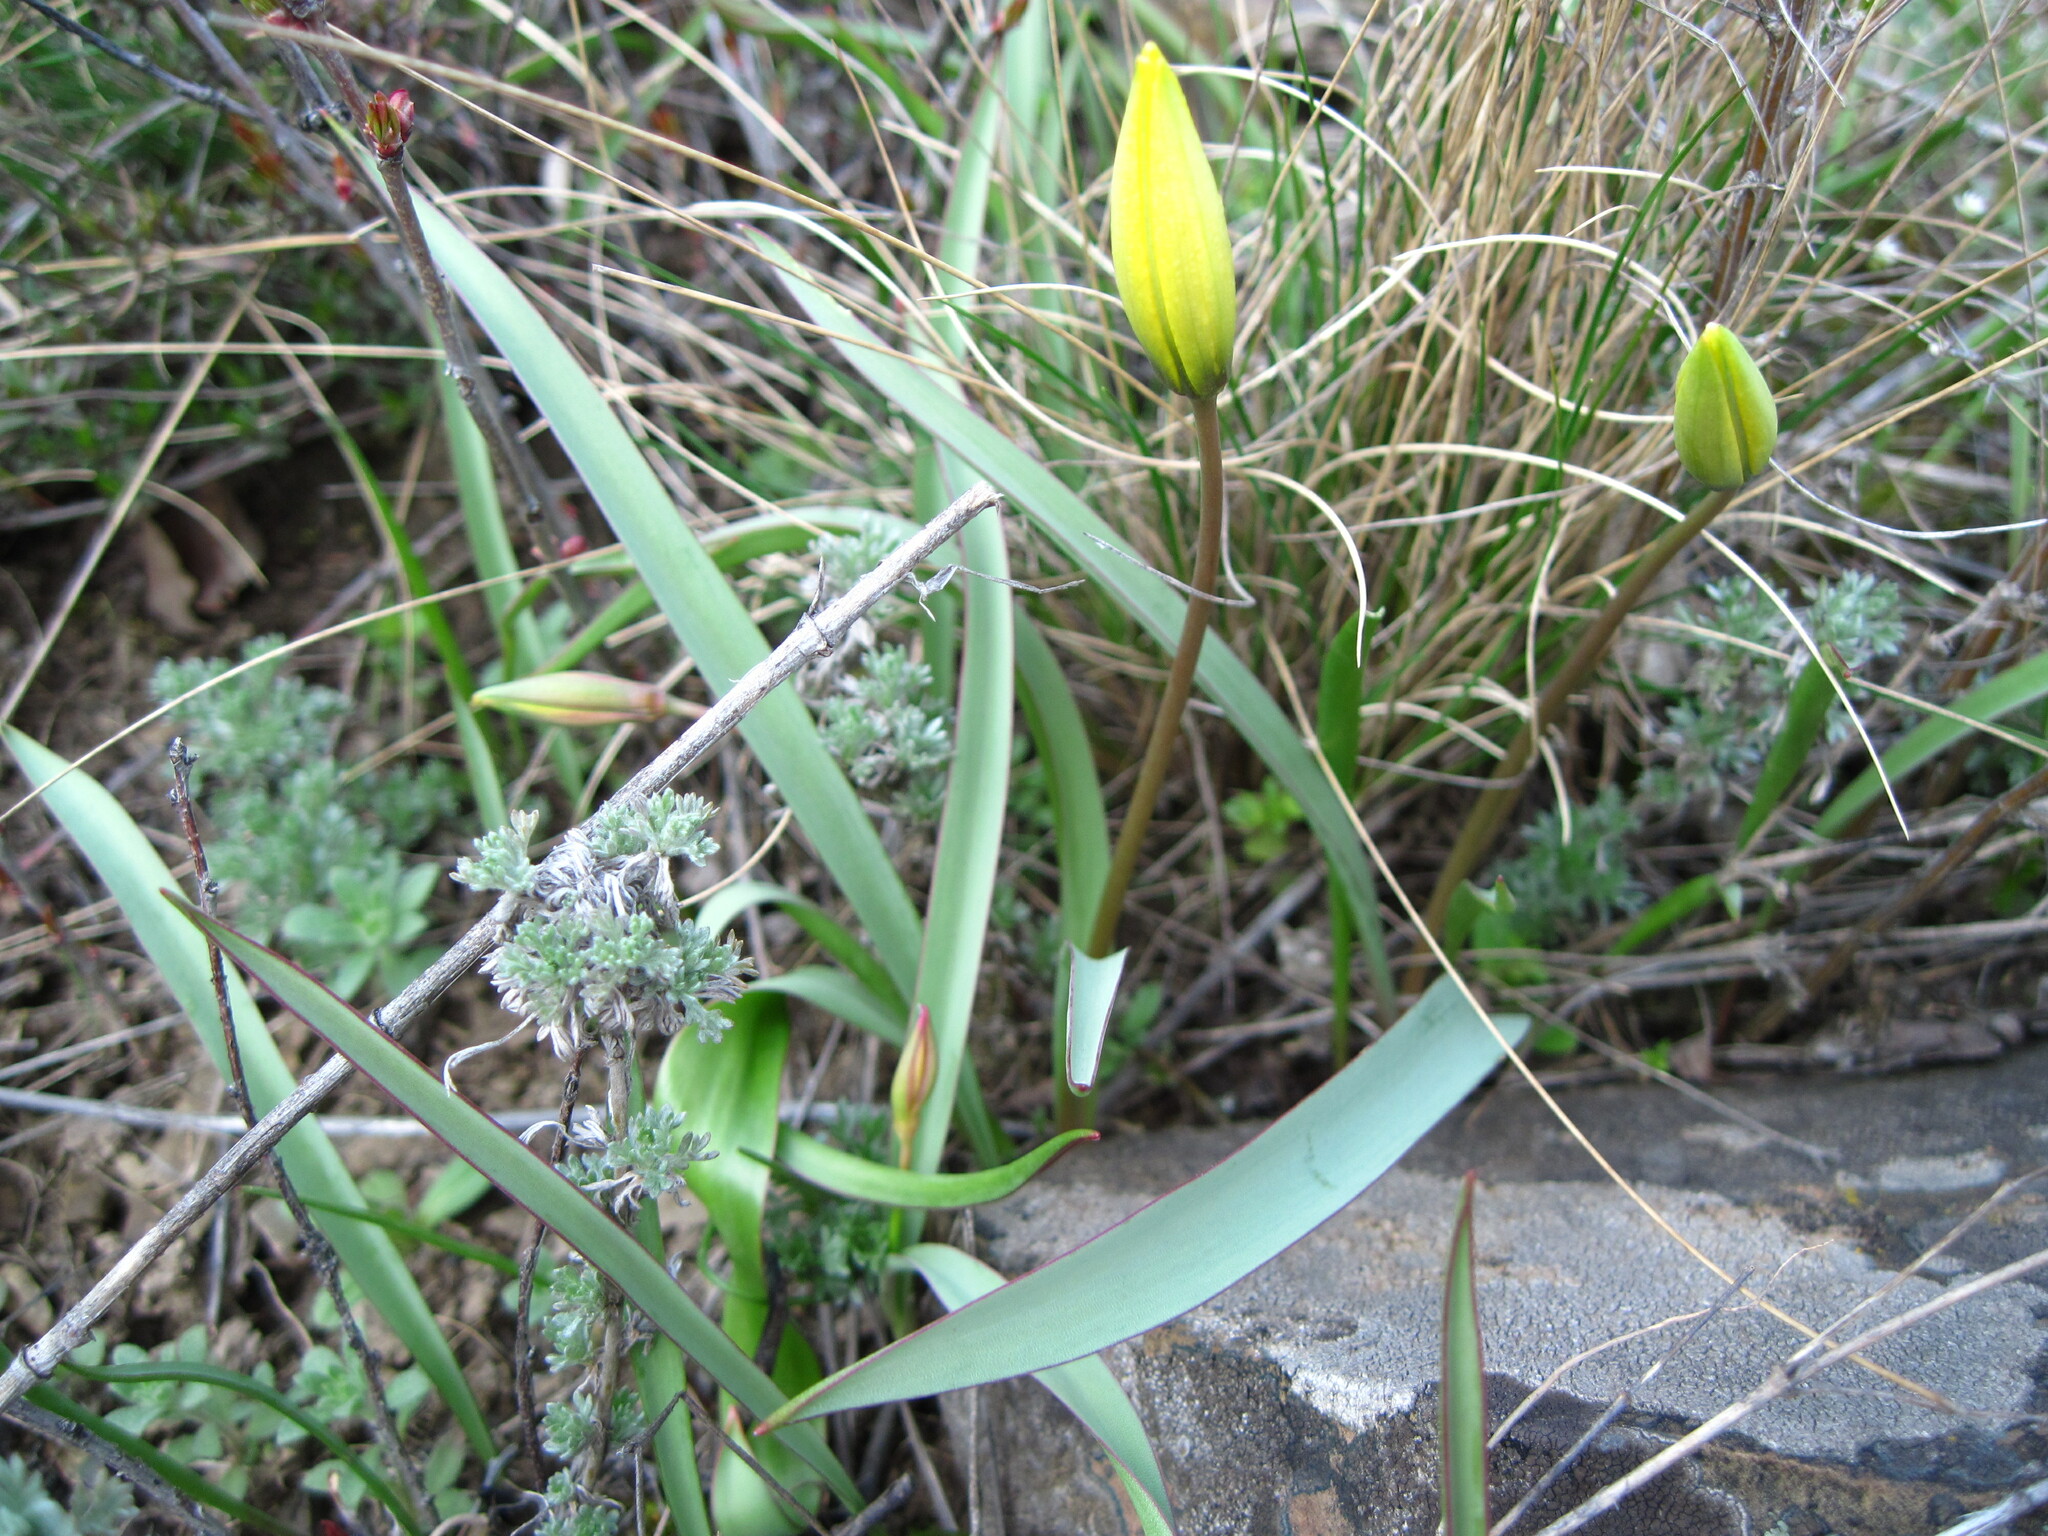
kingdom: Plantae
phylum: Tracheophyta
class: Liliopsida
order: Liliales
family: Liliaceae
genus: Tulipa
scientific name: Tulipa sylvestris
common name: Wild tulip
